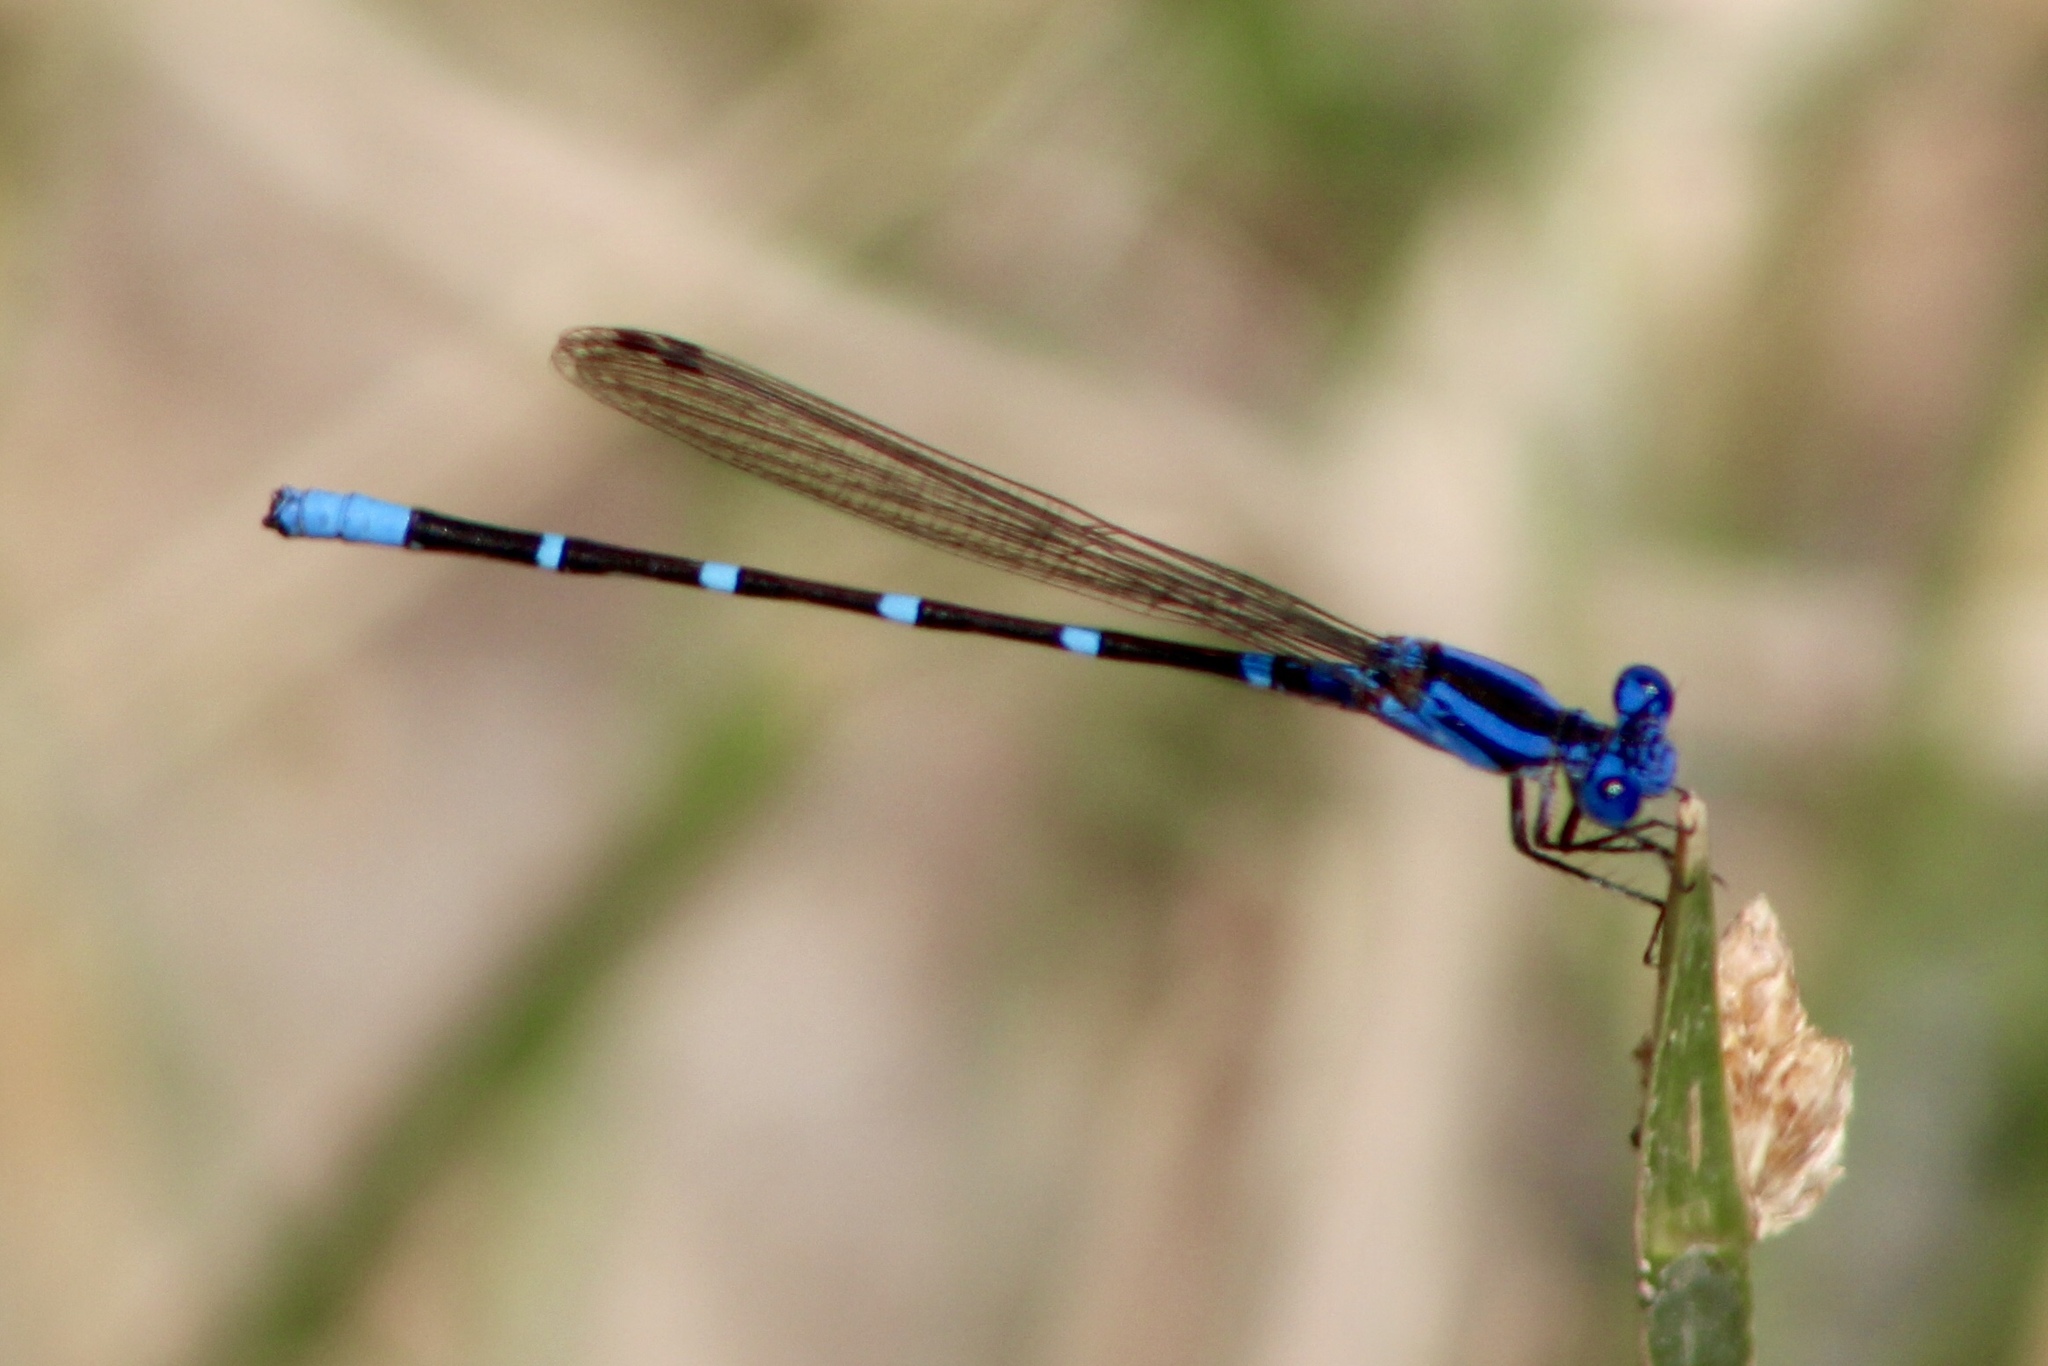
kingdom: Animalia
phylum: Arthropoda
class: Insecta
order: Odonata
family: Coenagrionidae
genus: Argia
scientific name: Argia sedula
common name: Blue-ringed dancer
